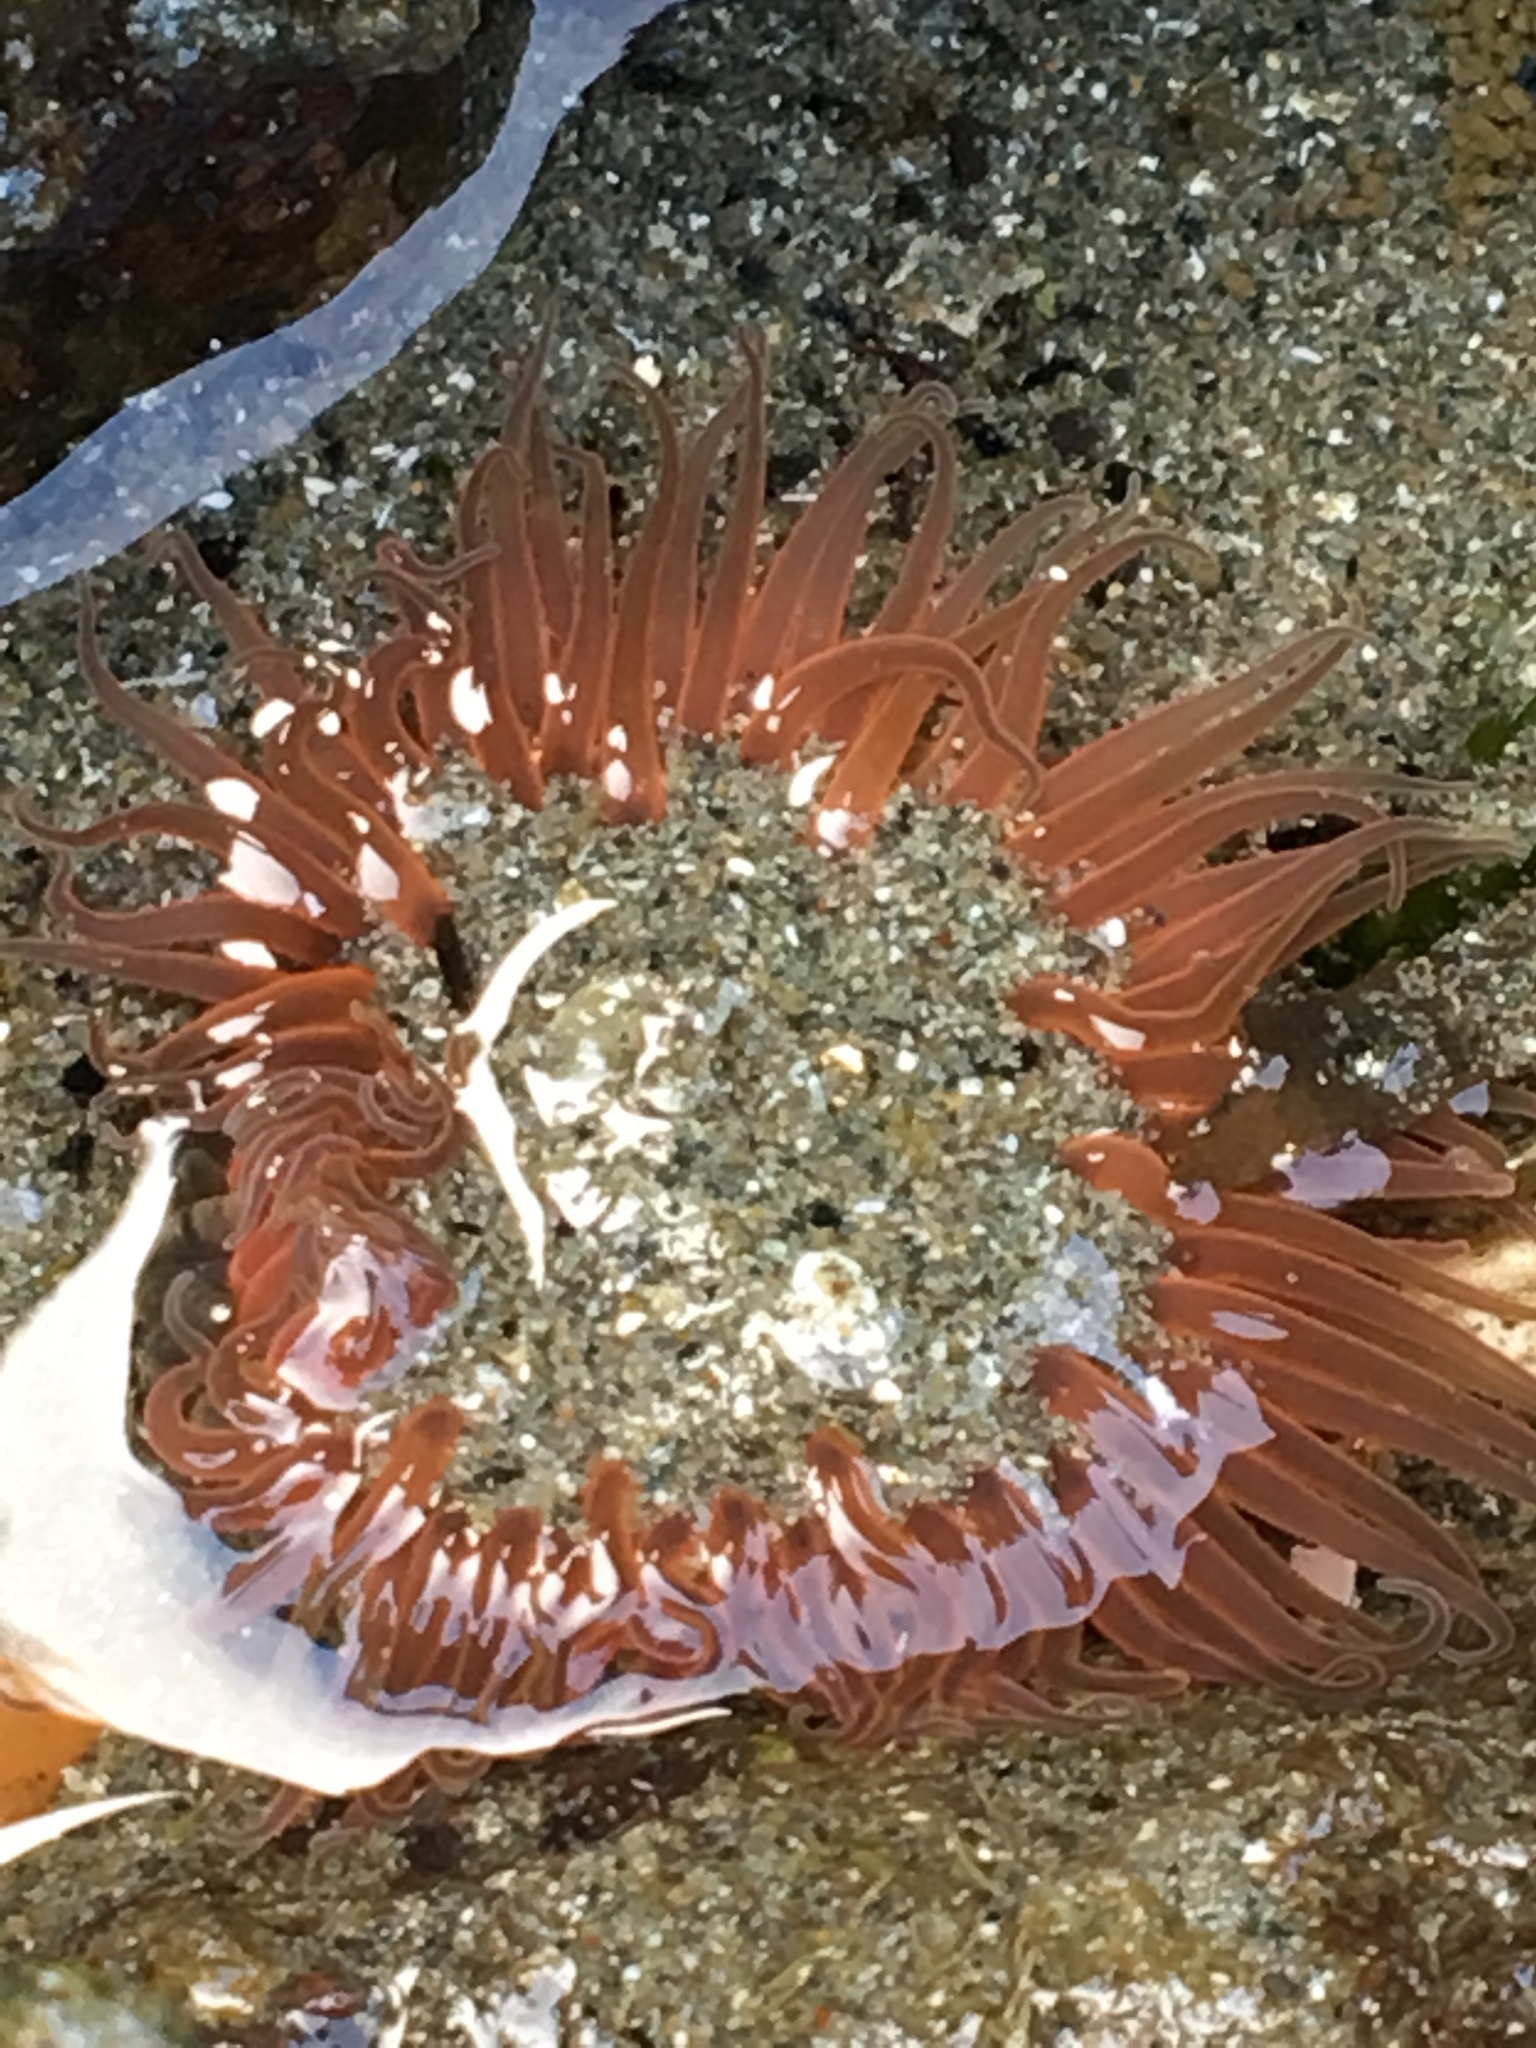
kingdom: Animalia
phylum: Cnidaria
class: Anthozoa
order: Actiniaria
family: Actiniidae
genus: Anthopleura
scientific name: Anthopleura artemisia
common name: Buried sea anemone
